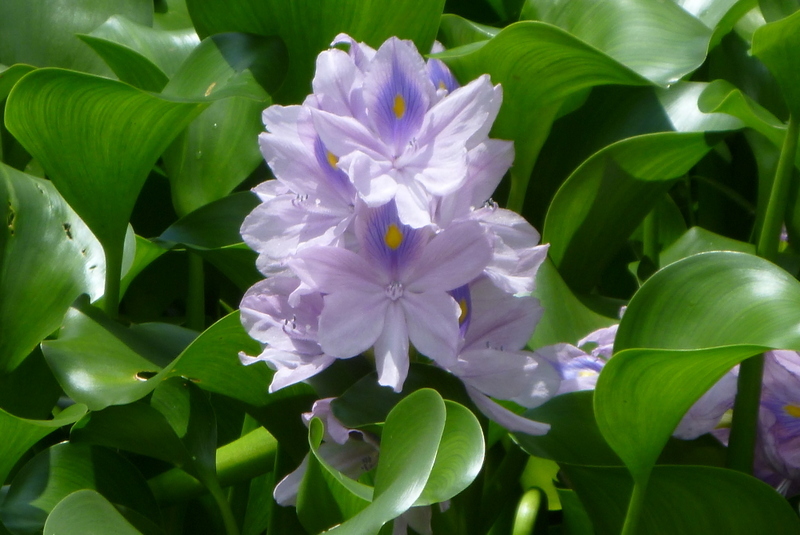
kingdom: Plantae
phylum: Tracheophyta
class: Liliopsida
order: Commelinales
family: Pontederiaceae
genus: Pontederia
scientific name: Pontederia crassipes
